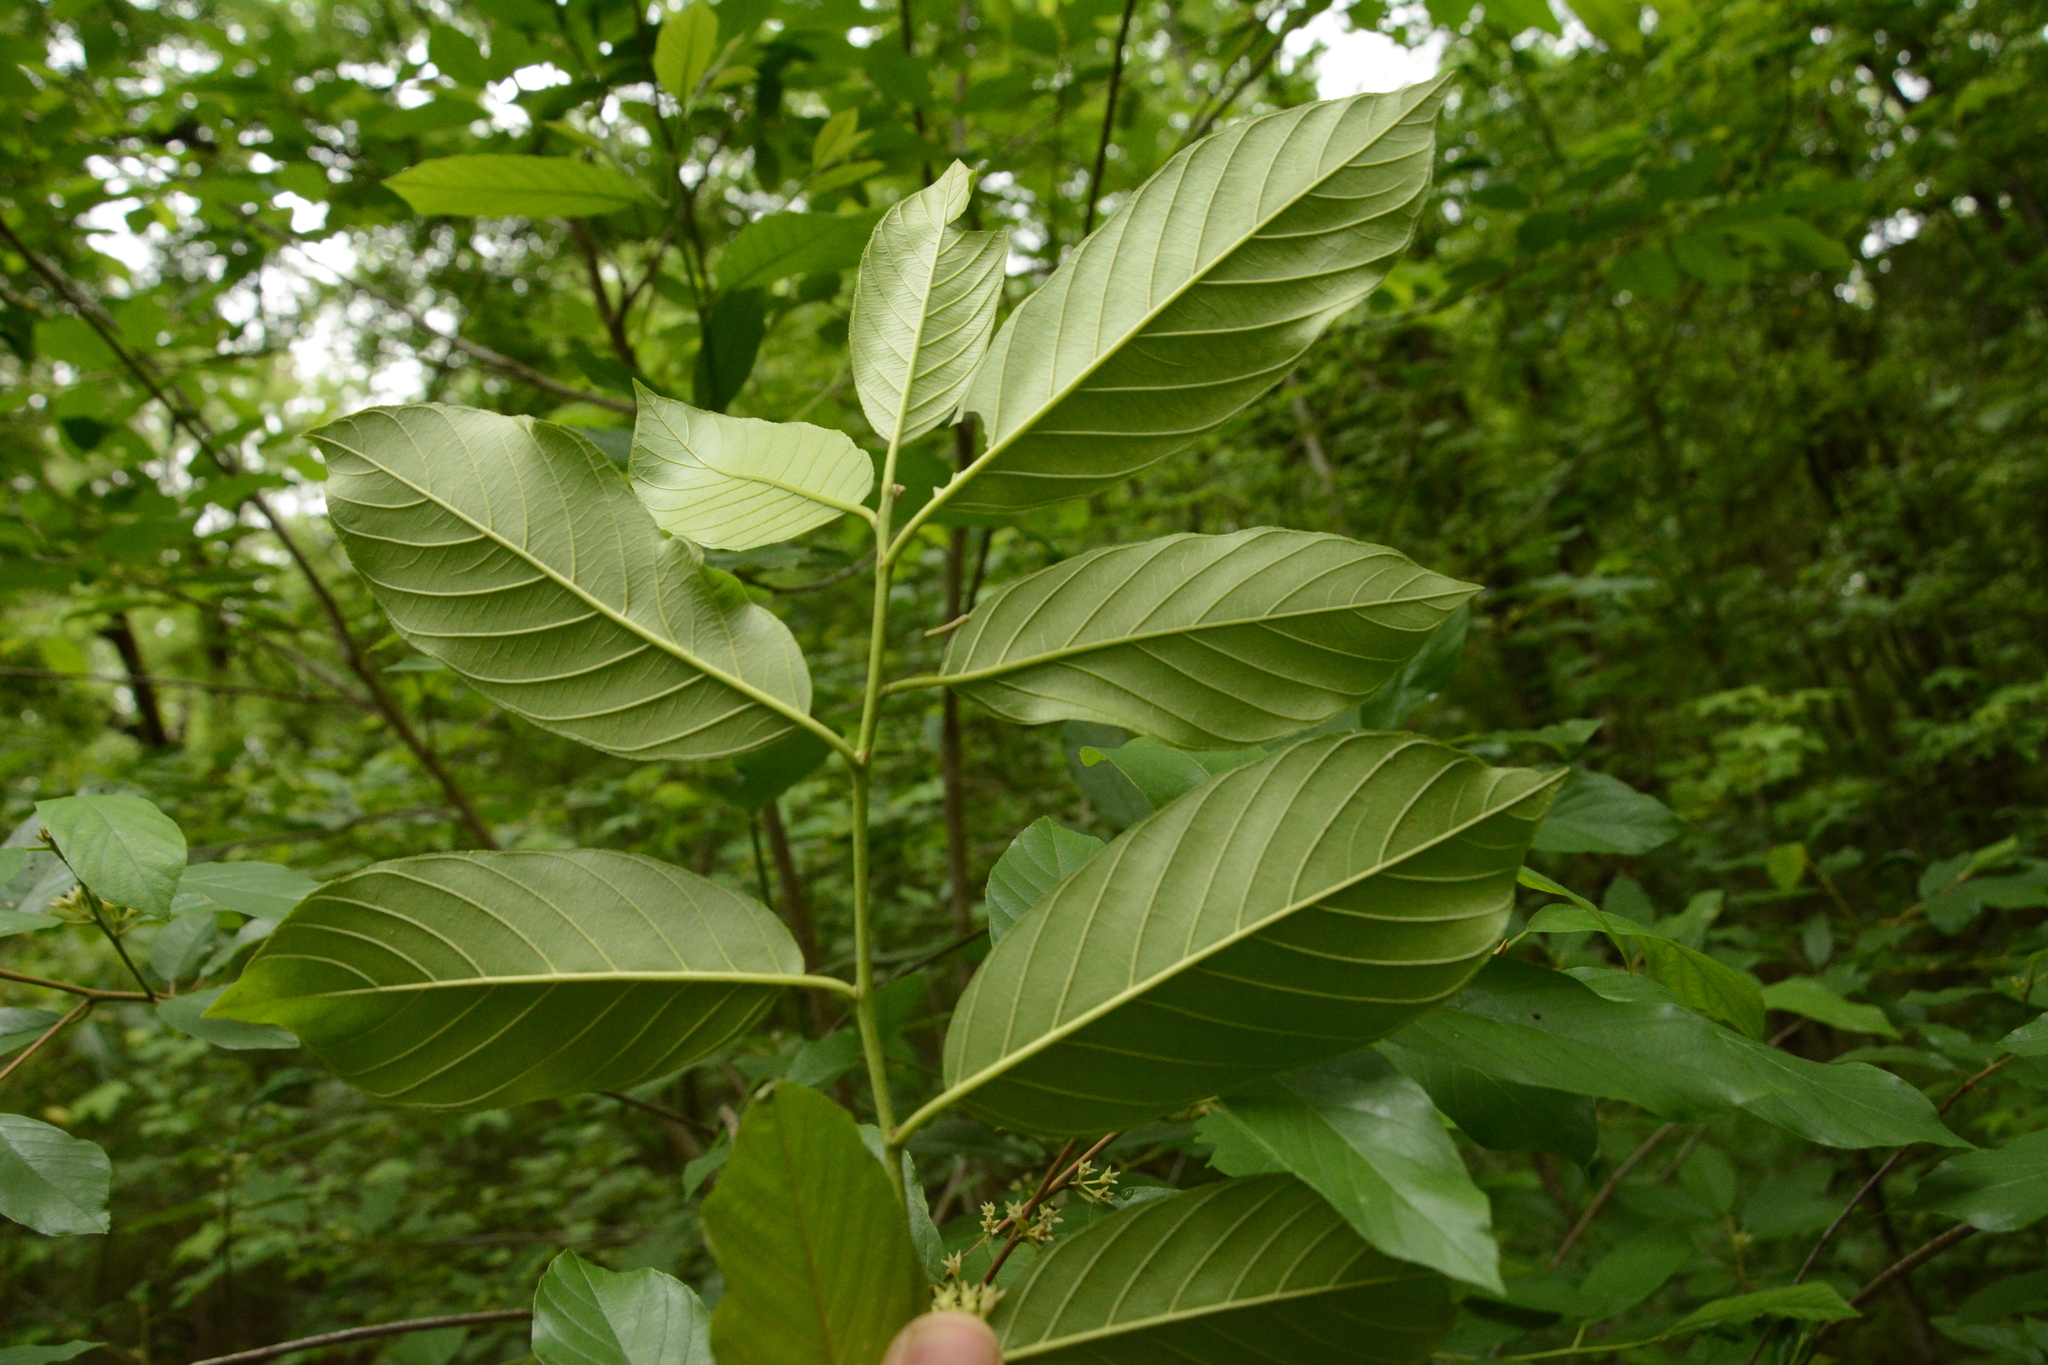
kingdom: Plantae
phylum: Tracheophyta
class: Magnoliopsida
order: Rosales
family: Rhamnaceae
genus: Frangula
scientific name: Frangula caroliniana
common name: Carolina buckthorn
